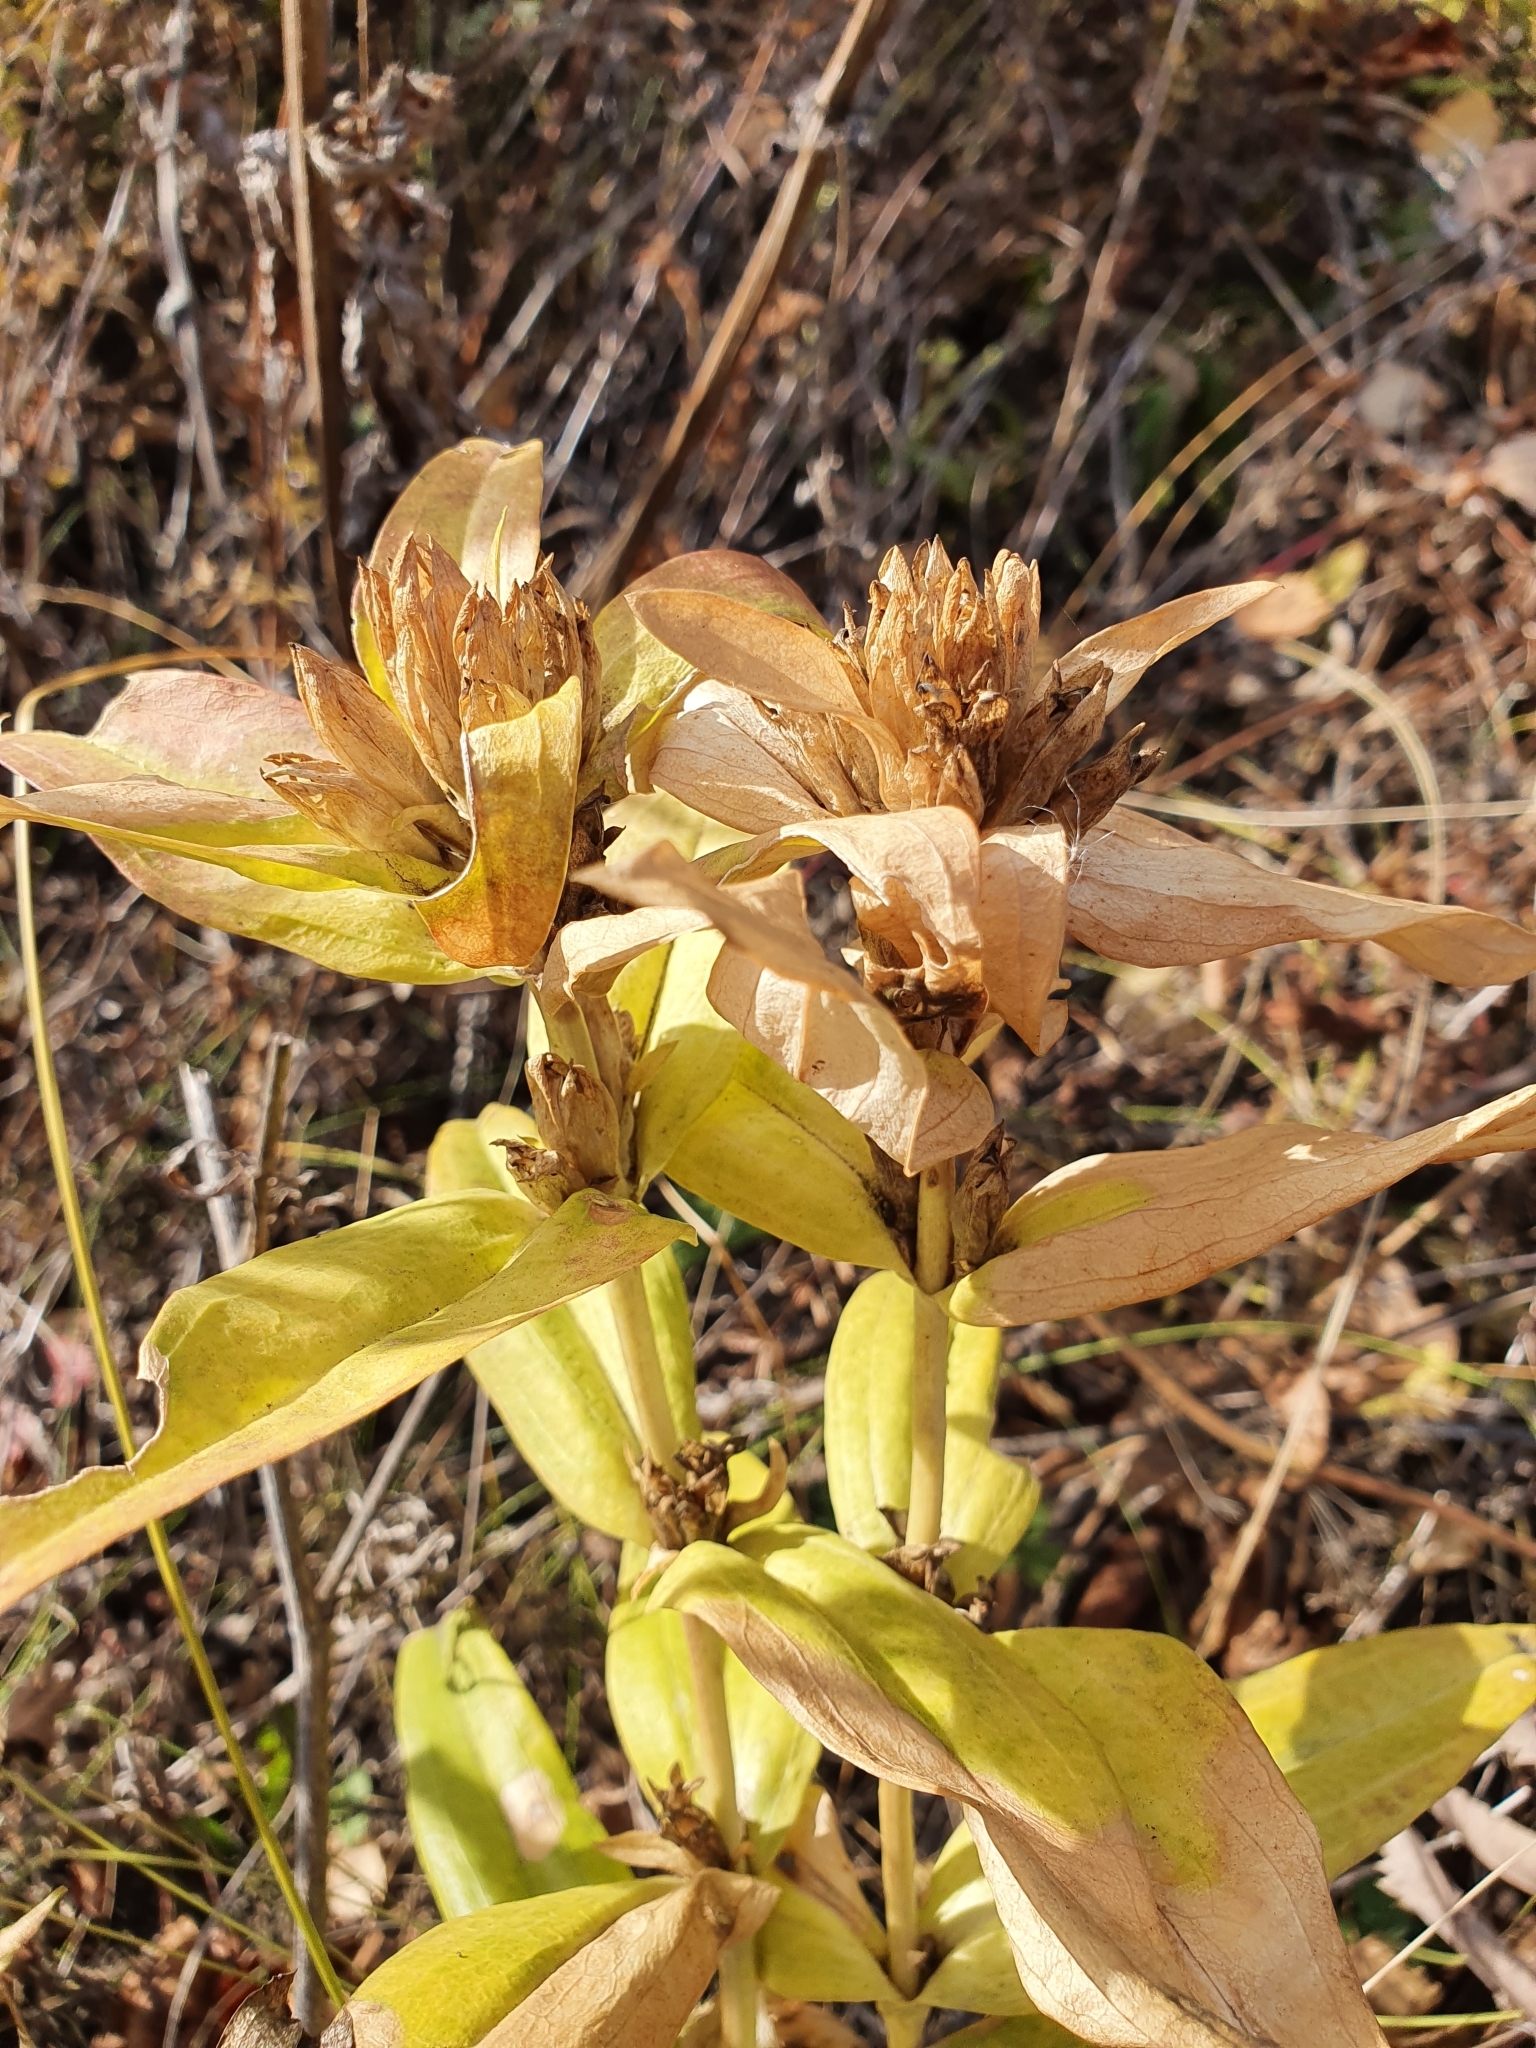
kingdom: Plantae
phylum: Tracheophyta
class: Magnoliopsida
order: Gentianales
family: Gentianaceae
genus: Gentiana
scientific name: Gentiana cruciata
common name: Cross gentian
